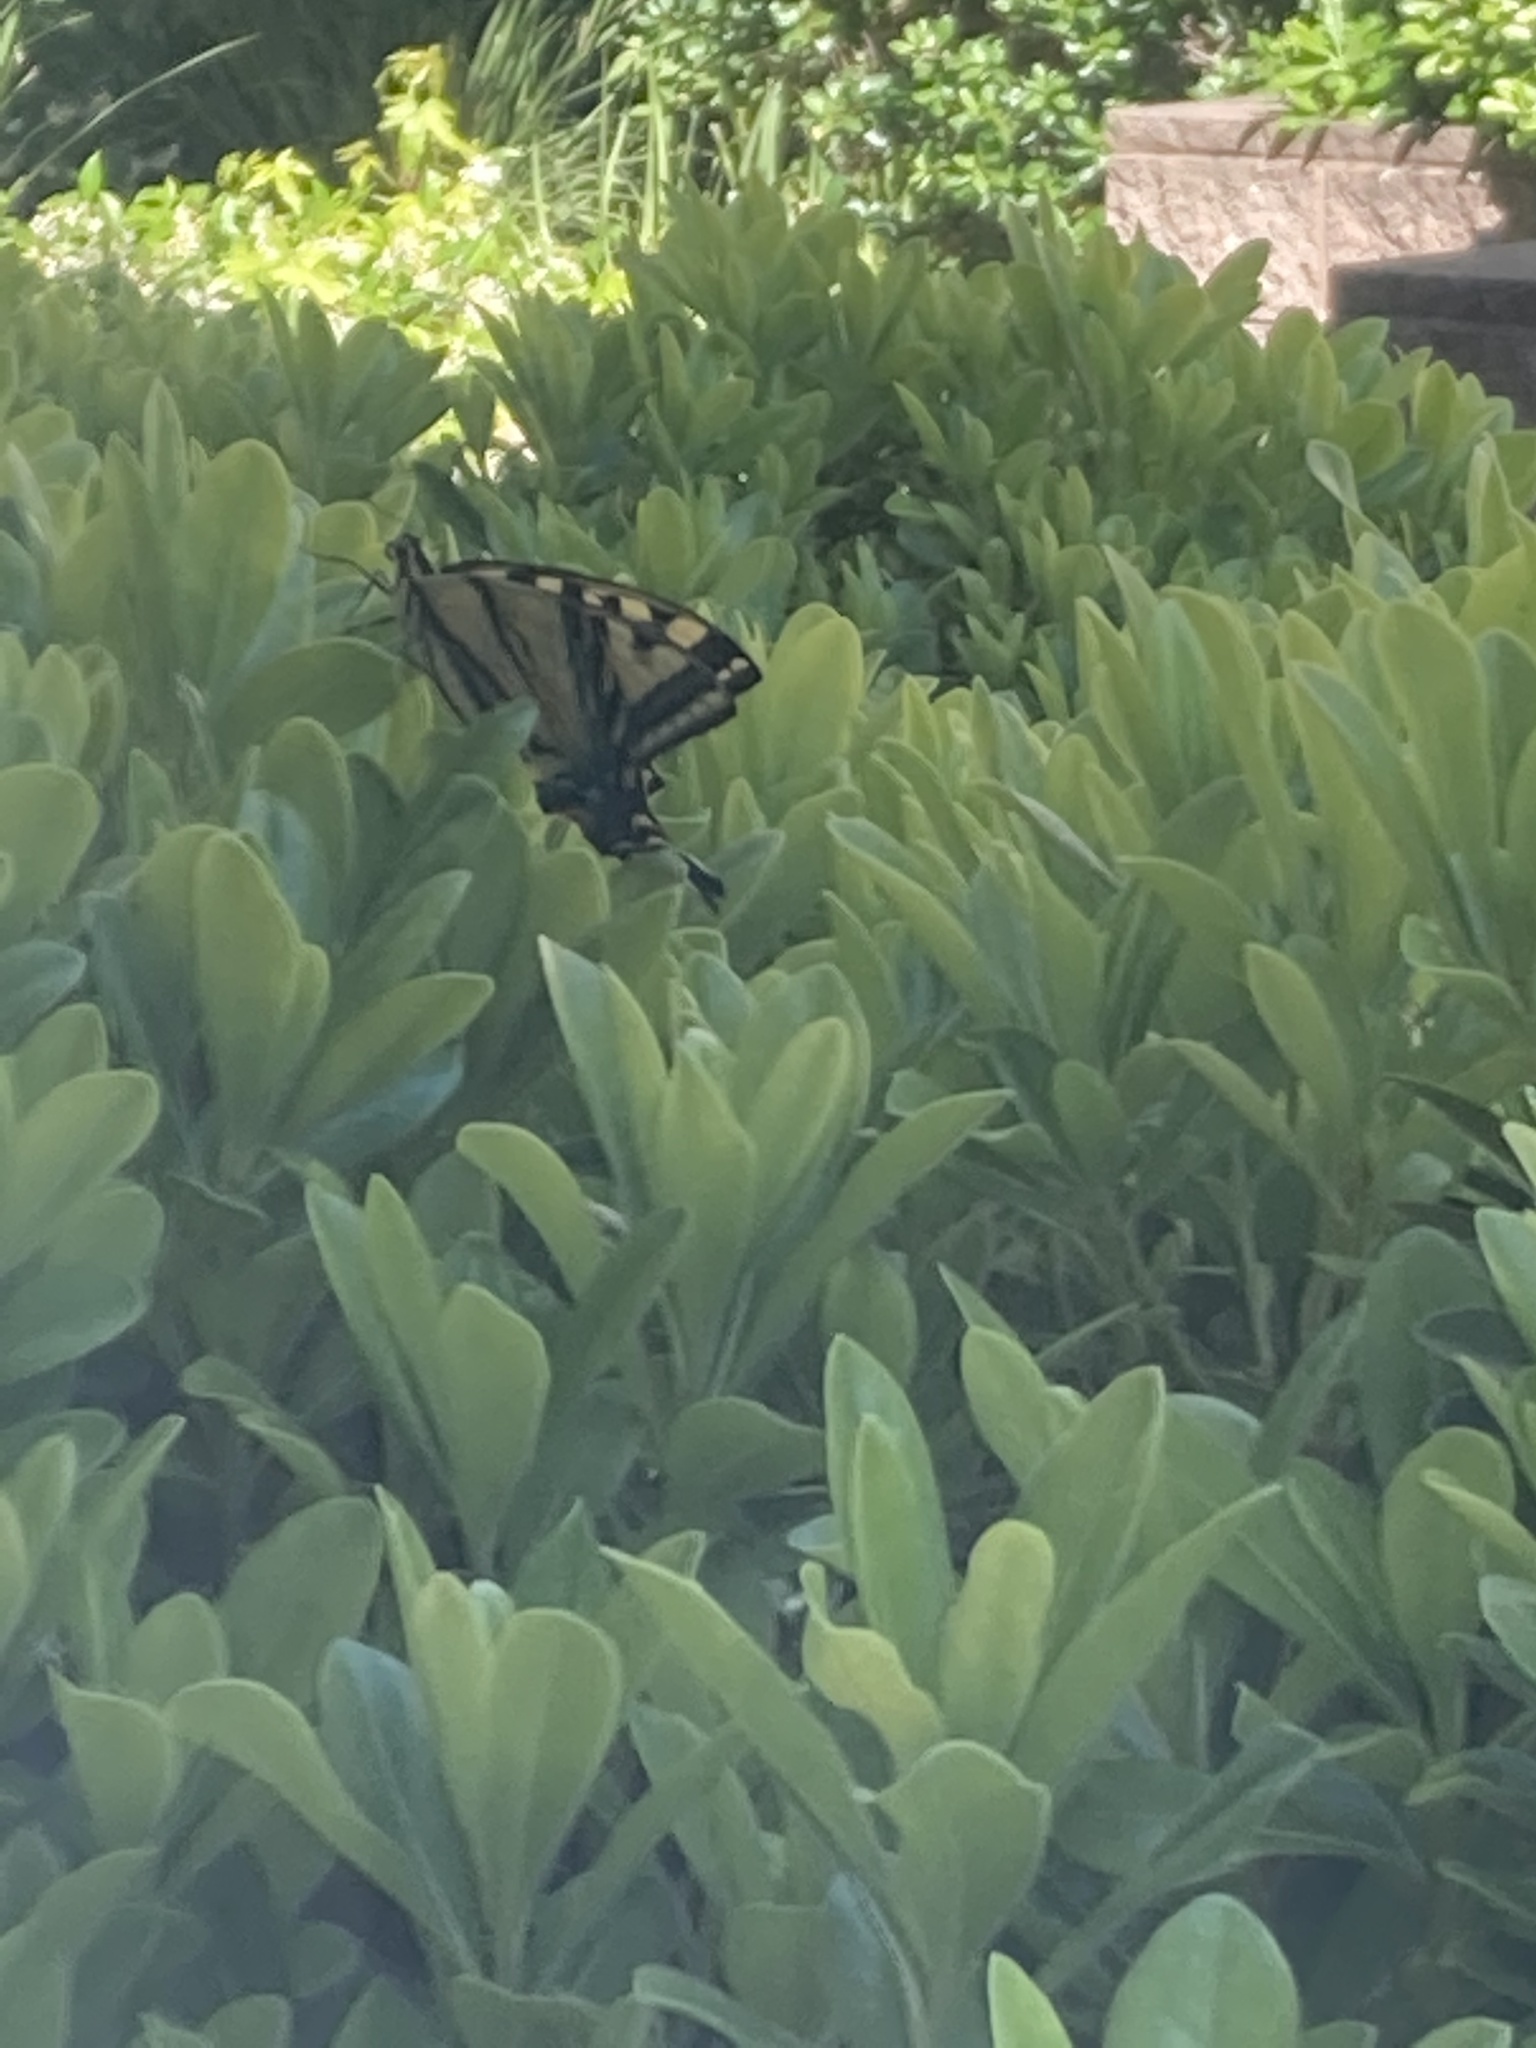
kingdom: Animalia
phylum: Arthropoda
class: Insecta
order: Lepidoptera
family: Papilionidae
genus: Papilio
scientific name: Papilio rutulus
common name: Western tiger swallowtail
